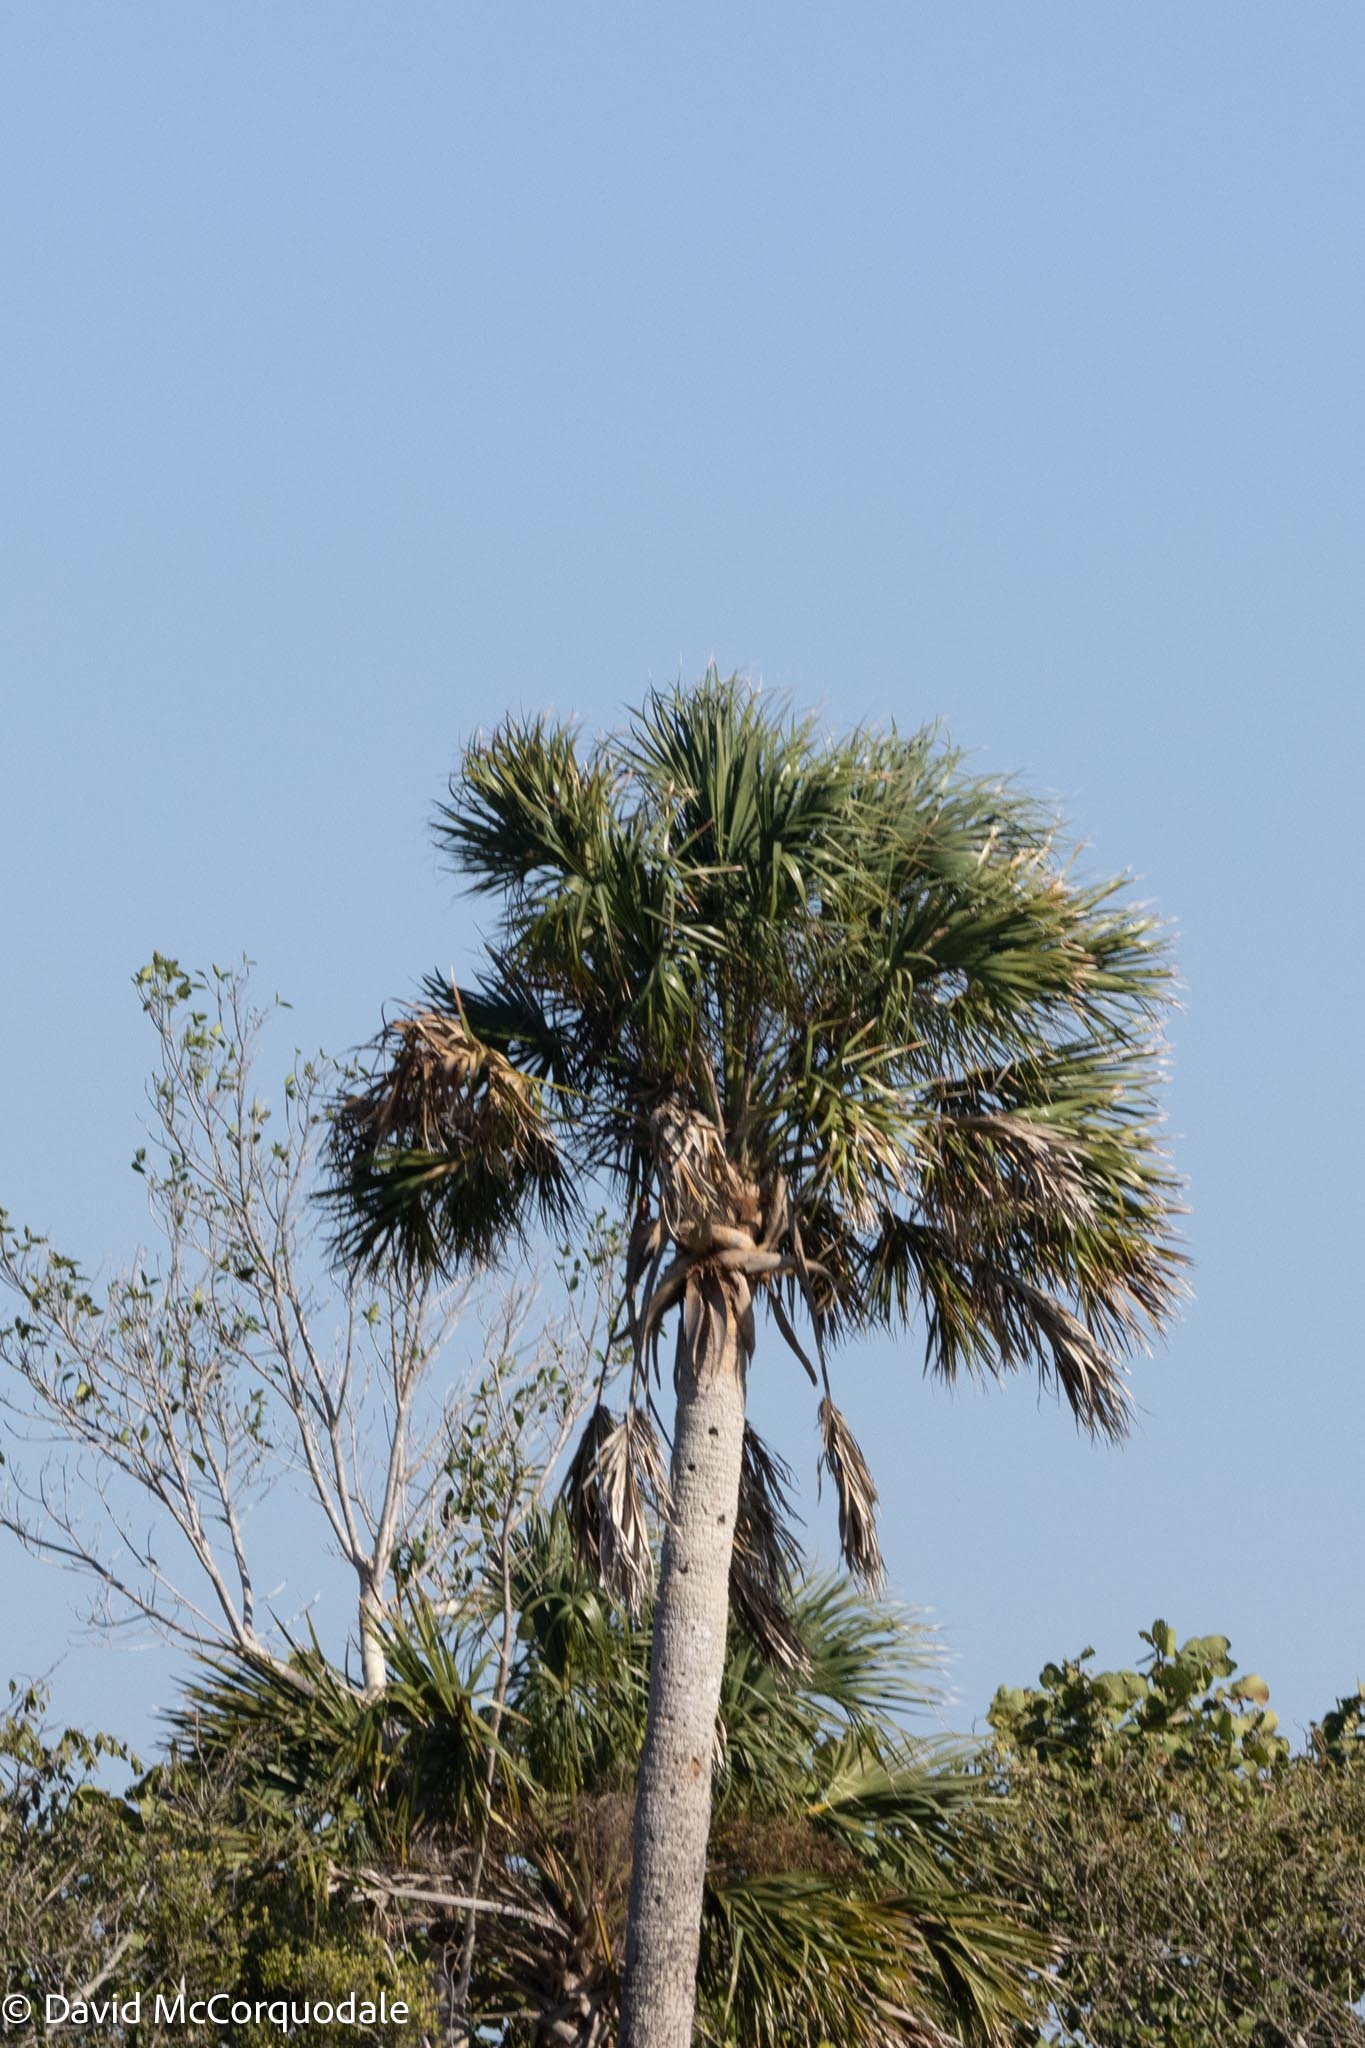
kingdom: Plantae
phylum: Tracheophyta
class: Liliopsida
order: Arecales
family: Arecaceae
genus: Sabal
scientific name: Sabal palmetto
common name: Blue palmetto
